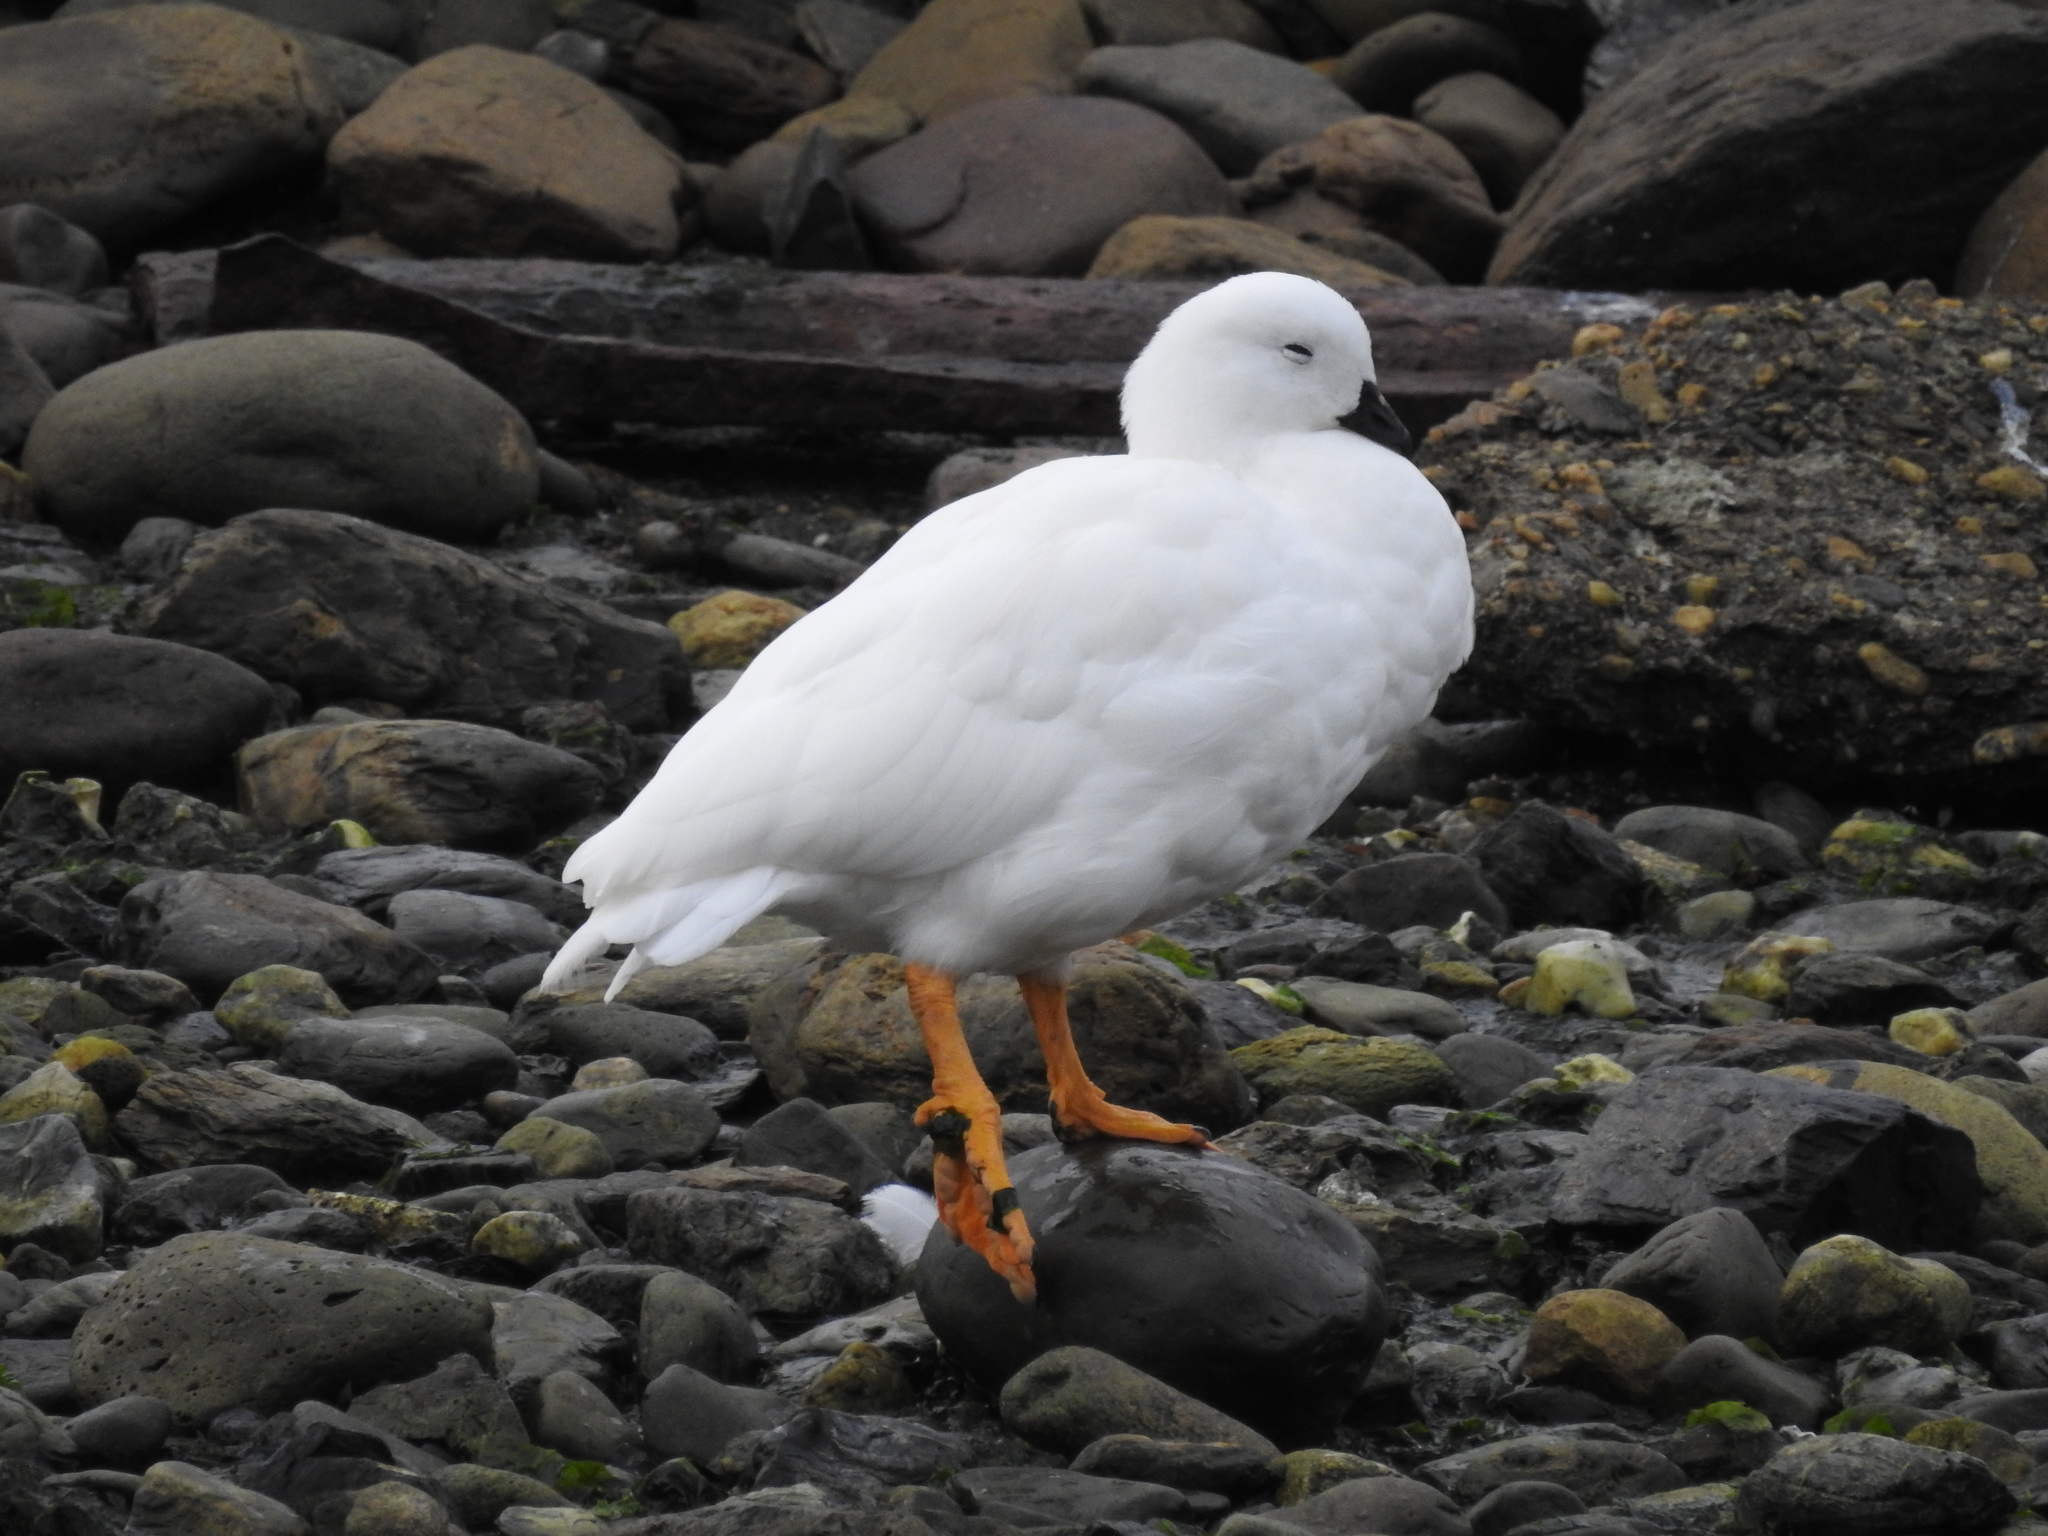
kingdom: Animalia
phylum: Chordata
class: Aves
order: Anseriformes
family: Anatidae
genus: Chloephaga
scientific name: Chloephaga hybrida
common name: Kelp goose
